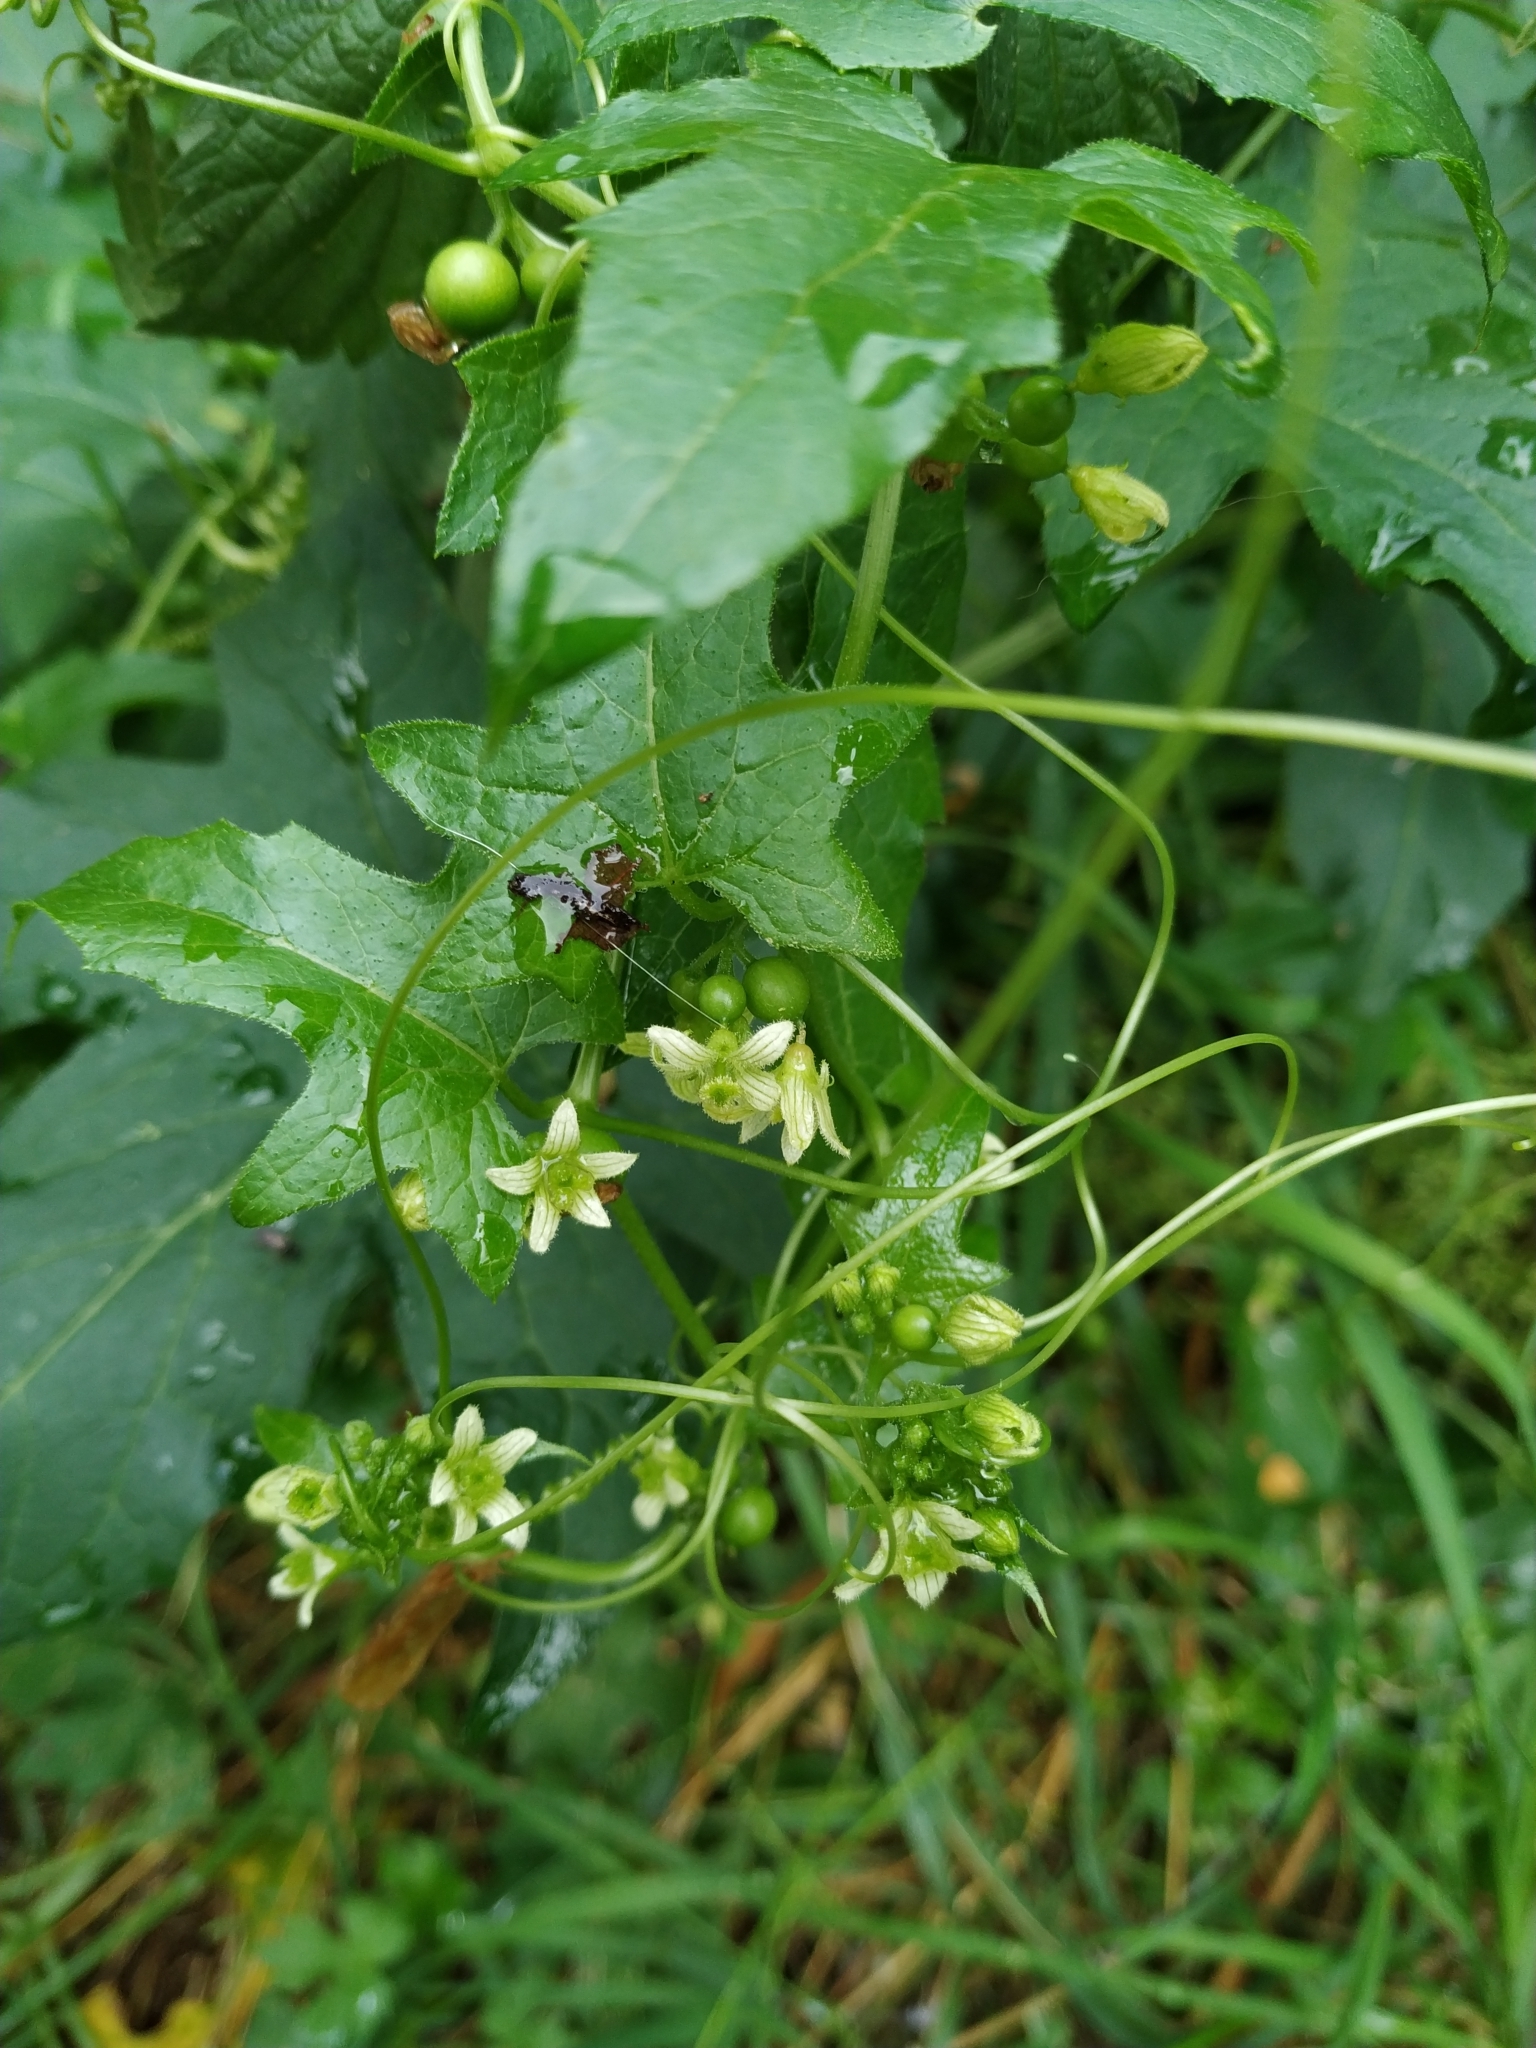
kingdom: Plantae
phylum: Tracheophyta
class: Magnoliopsida
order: Cucurbitales
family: Cucurbitaceae
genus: Bryonia
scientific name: Bryonia dioica
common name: White bryony
